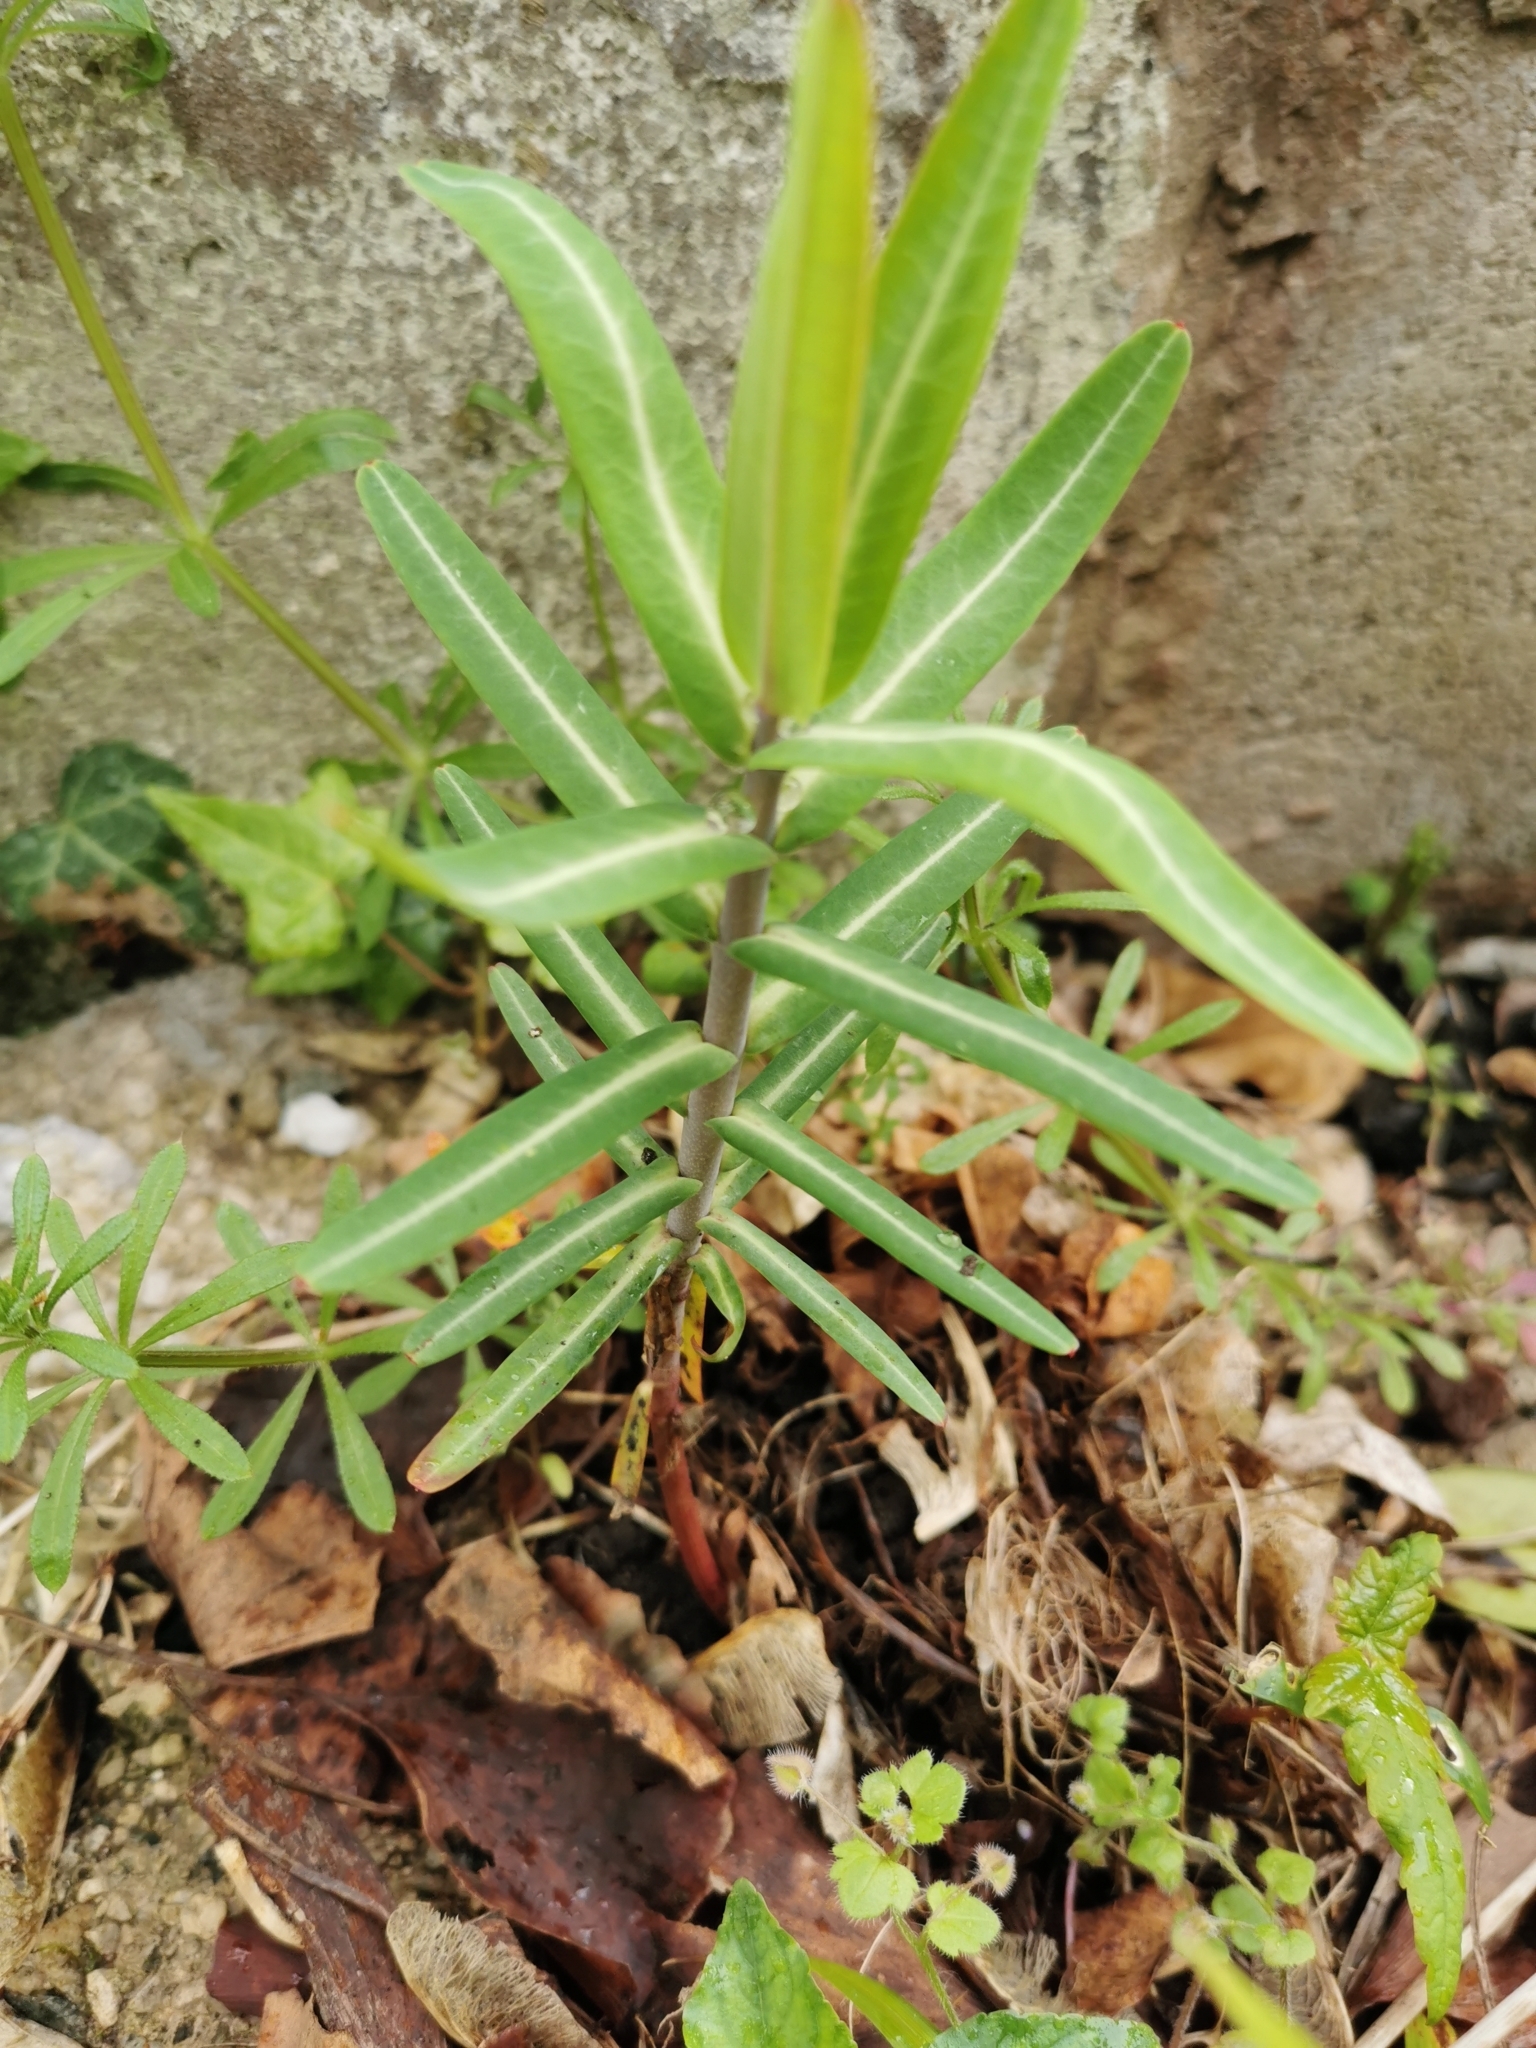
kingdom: Plantae
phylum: Tracheophyta
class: Magnoliopsida
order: Malpighiales
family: Euphorbiaceae
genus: Euphorbia
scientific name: Euphorbia lathyris
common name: Caper spurge
